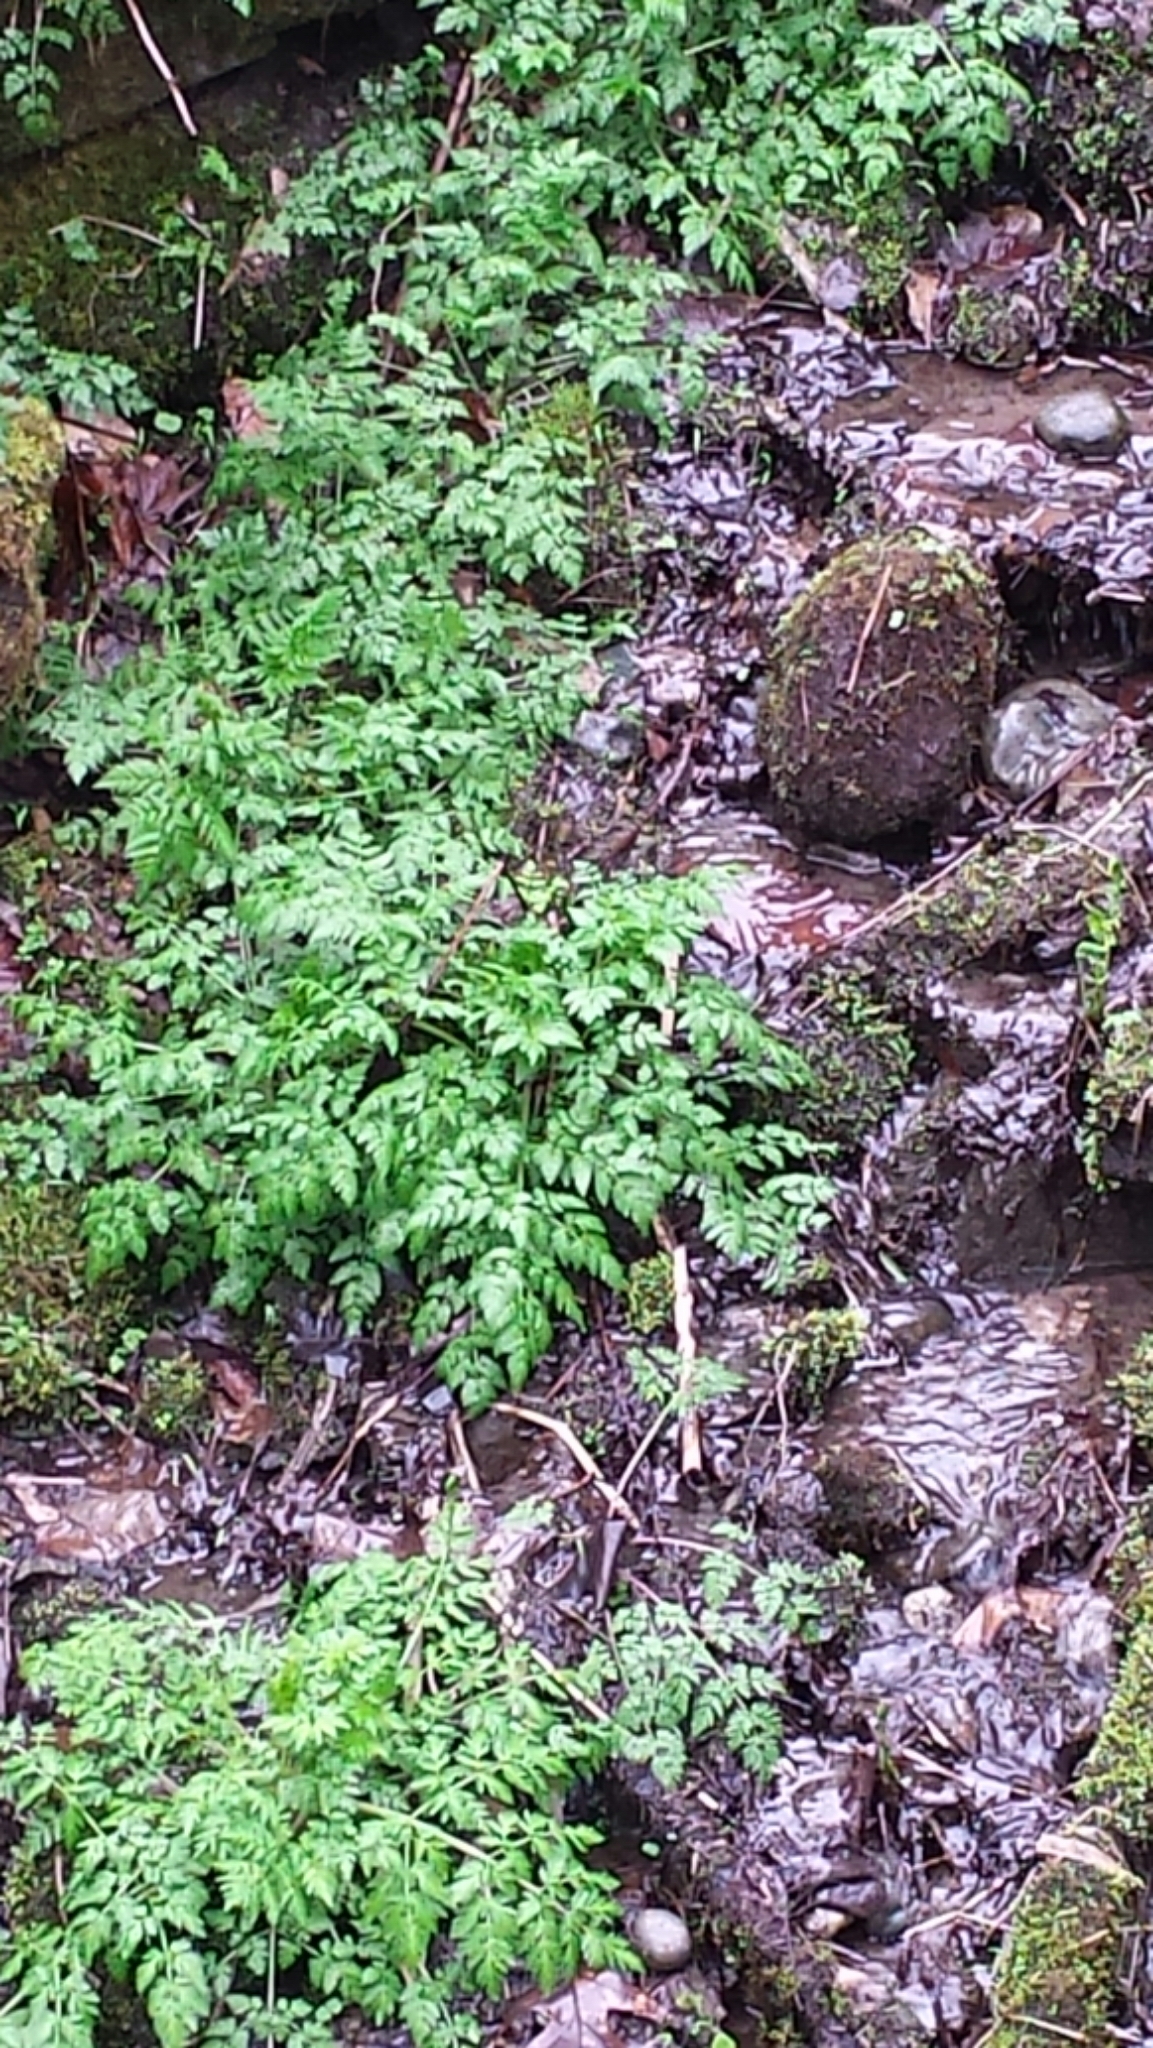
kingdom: Plantae
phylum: Tracheophyta
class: Magnoliopsida
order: Apiales
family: Apiaceae
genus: Anthriscus
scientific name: Anthriscus sylvestris
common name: Cow parsley
